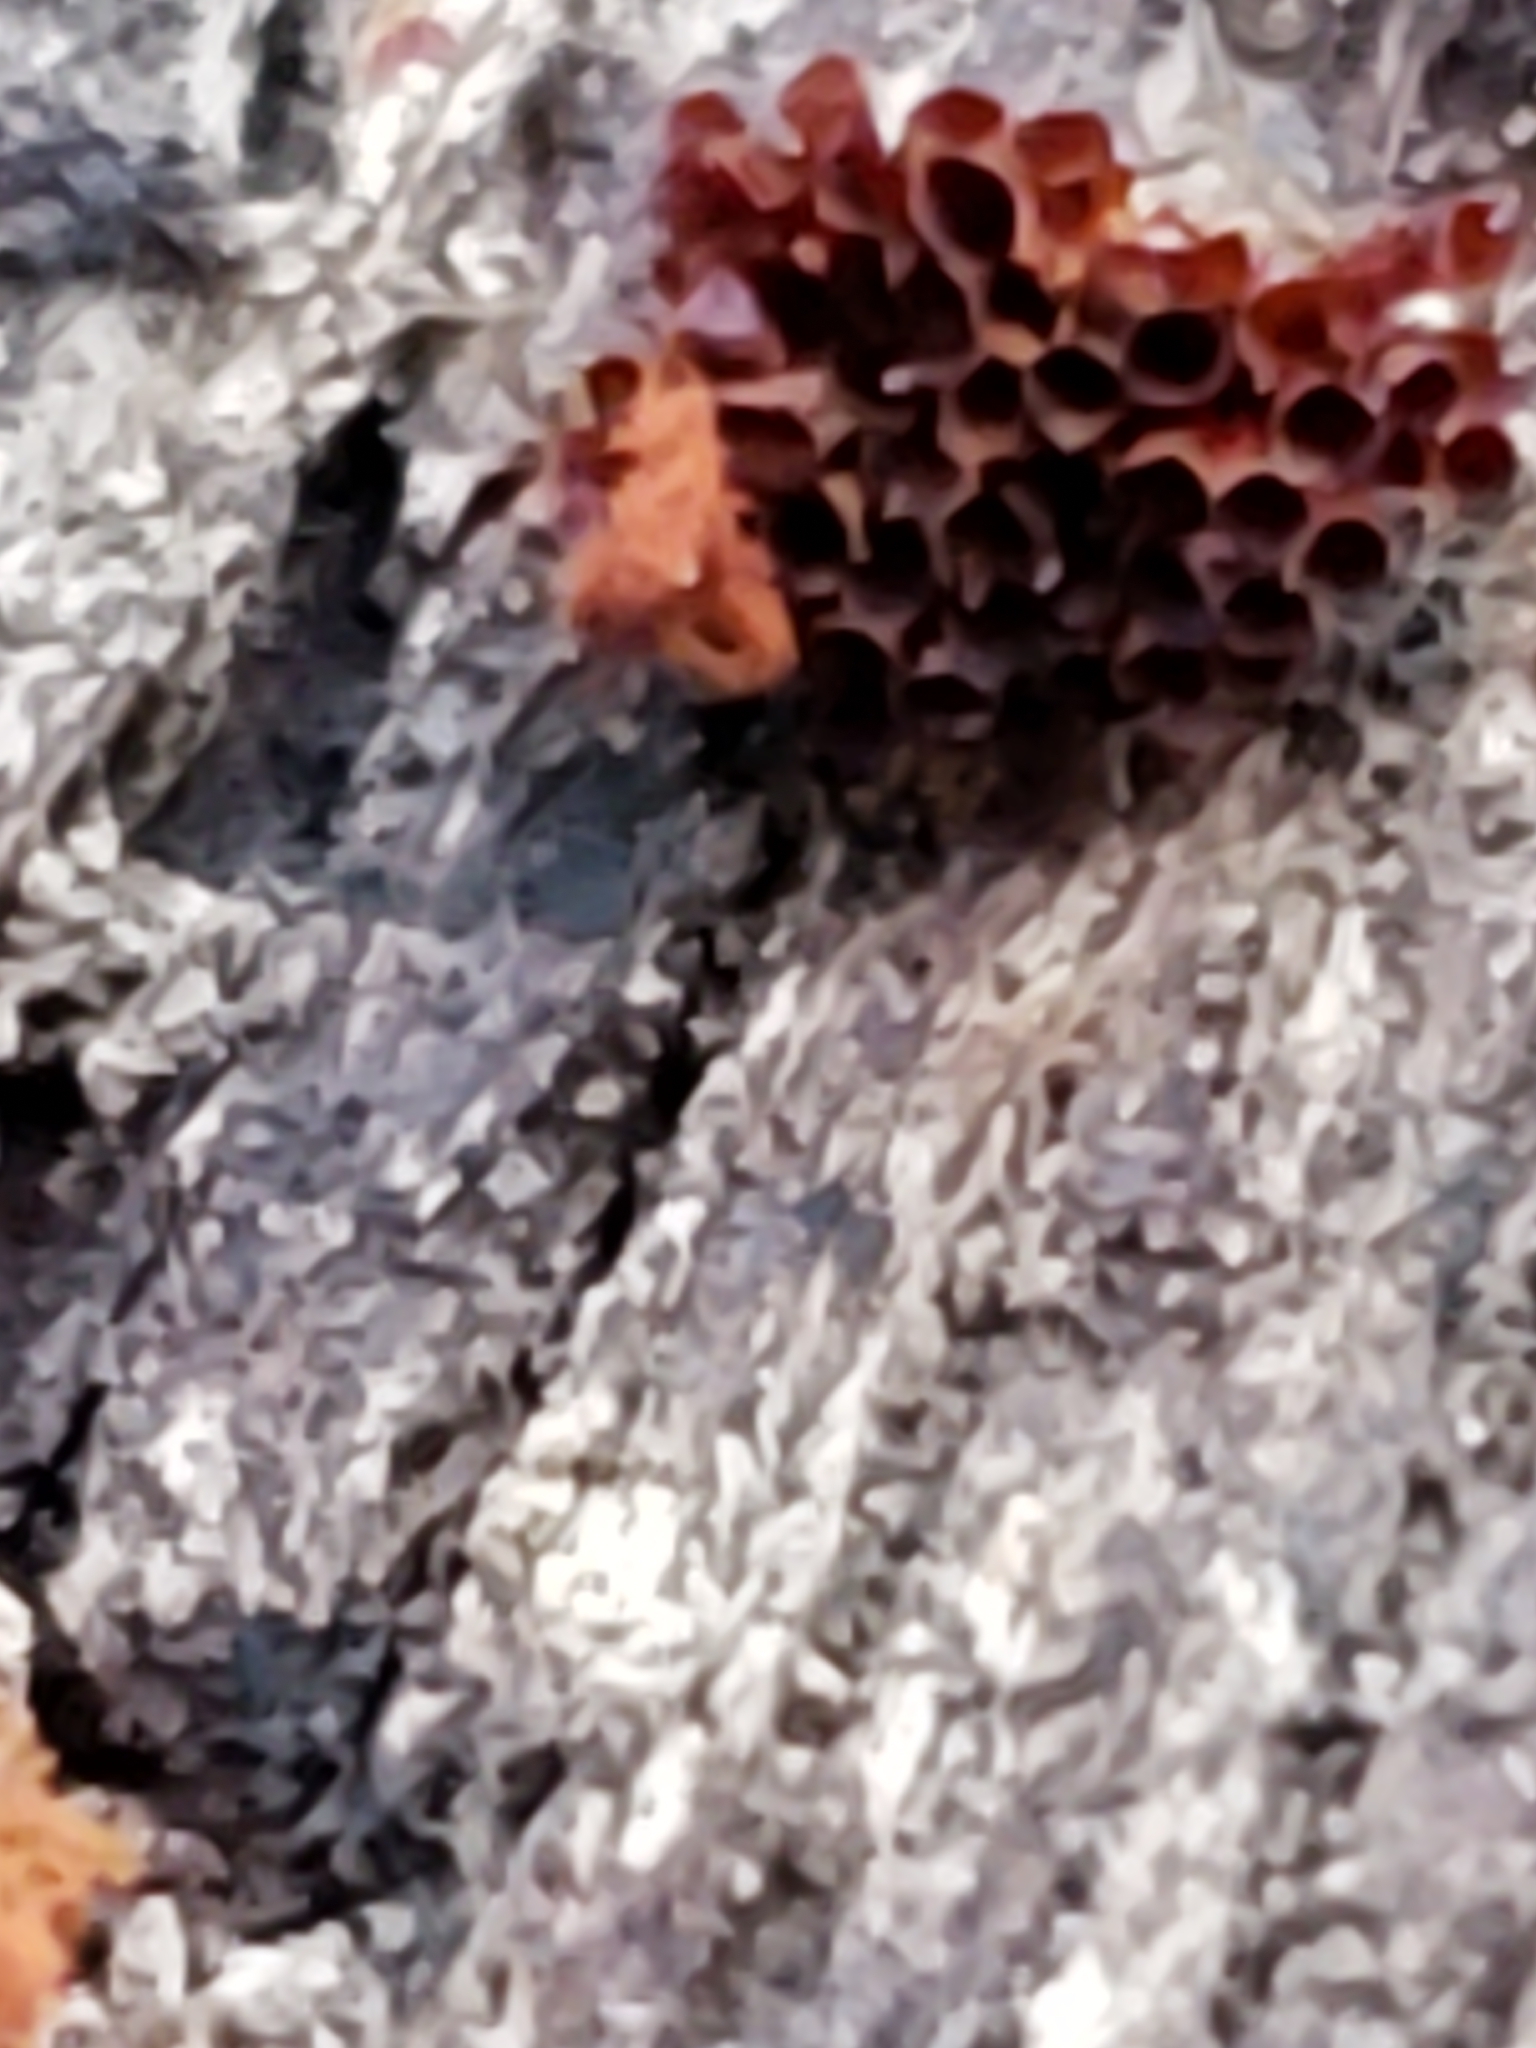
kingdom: Protozoa
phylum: Mycetozoa
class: Myxomycetes
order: Trichiales
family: Trichiaceae
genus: Metatrichia
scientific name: Metatrichia vesparia
